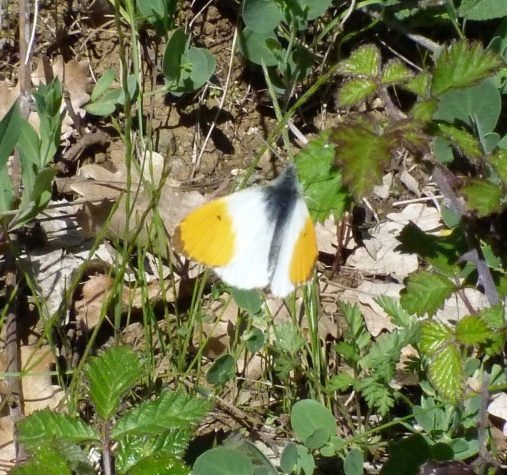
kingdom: Animalia
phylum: Arthropoda
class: Insecta
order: Lepidoptera
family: Pieridae
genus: Anthocharis
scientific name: Anthocharis cardamines
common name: Orange-tip
